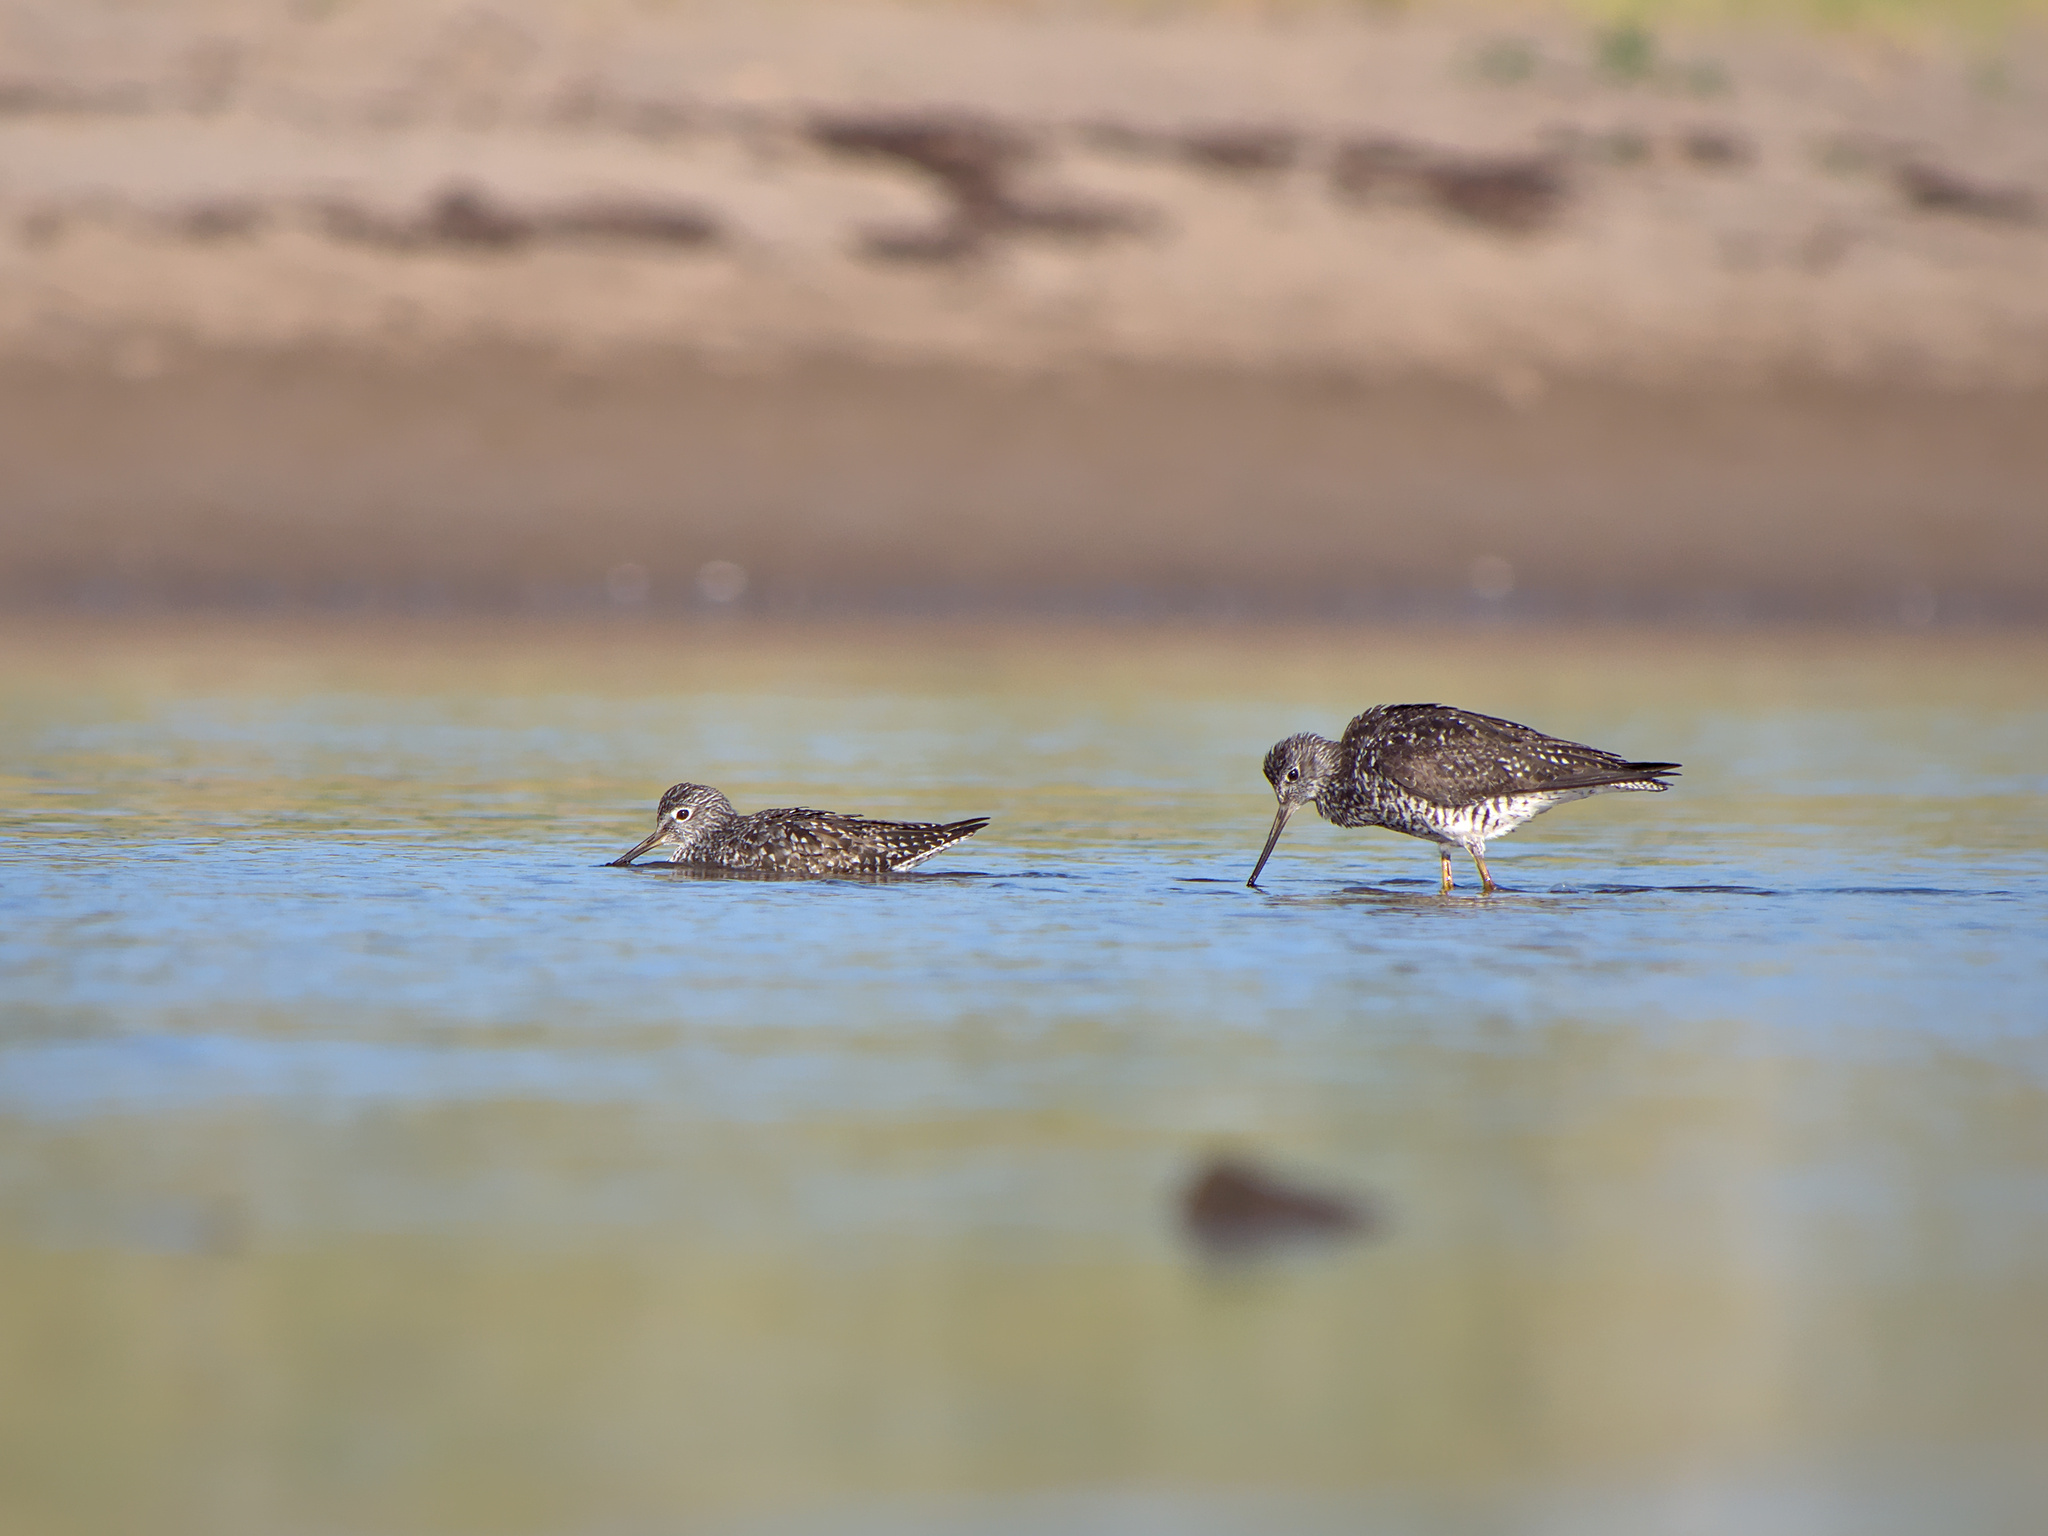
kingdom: Animalia
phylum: Chordata
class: Aves
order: Charadriiformes
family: Scolopacidae
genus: Tringa
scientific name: Tringa melanoleuca
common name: Greater yellowlegs
